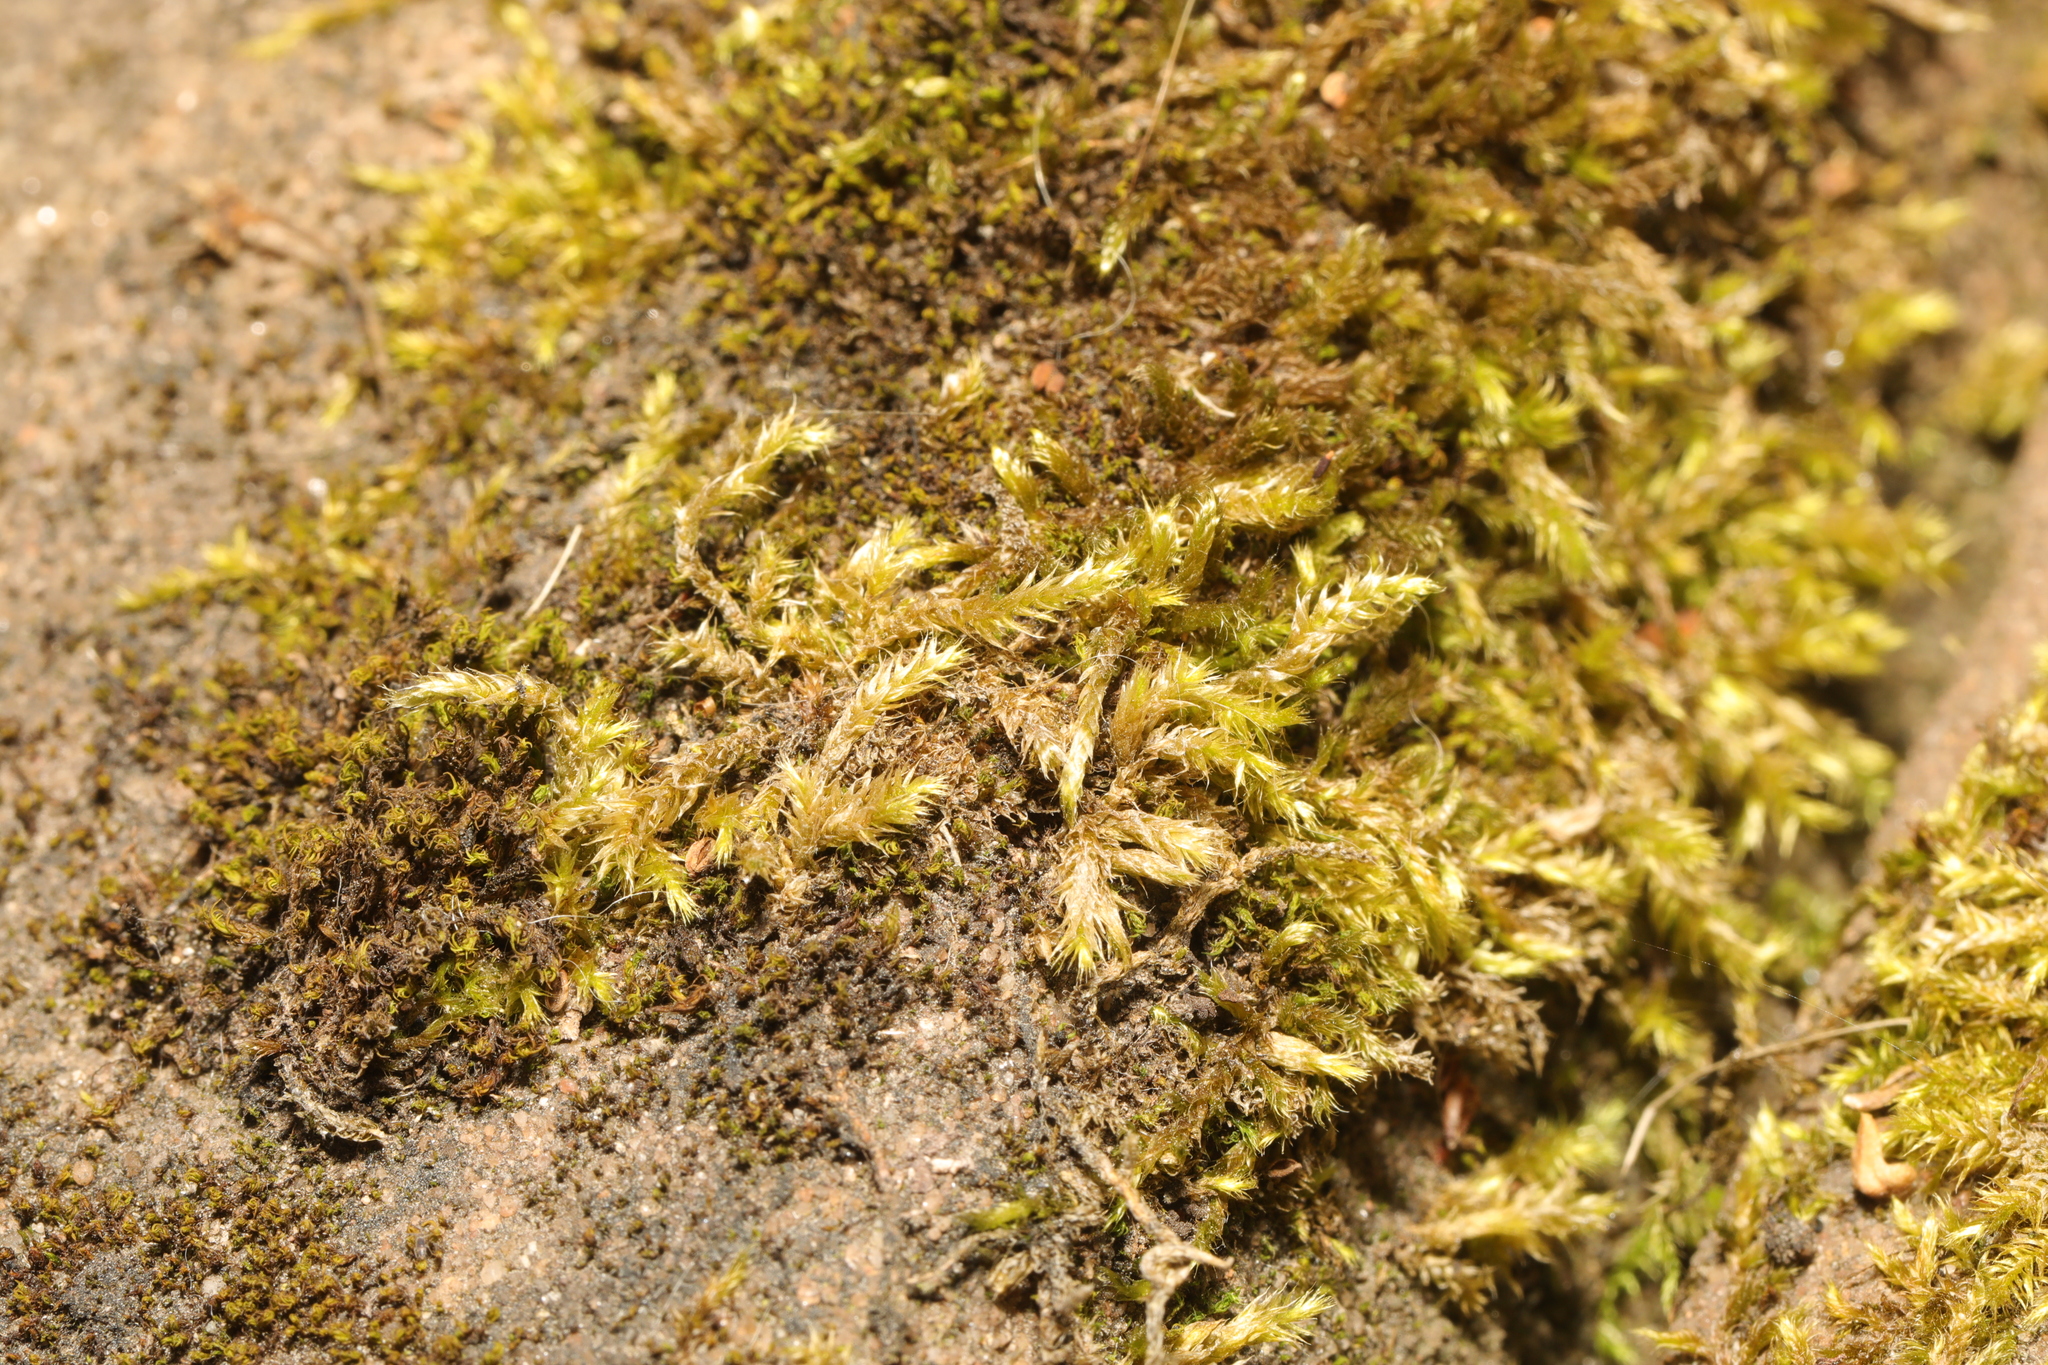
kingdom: Plantae
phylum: Bryophyta
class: Bryopsida
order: Hypnales
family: Brachytheciaceae
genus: Brachythecium
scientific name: Brachythecium rutabulum
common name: Rough-stalked feather-moss
